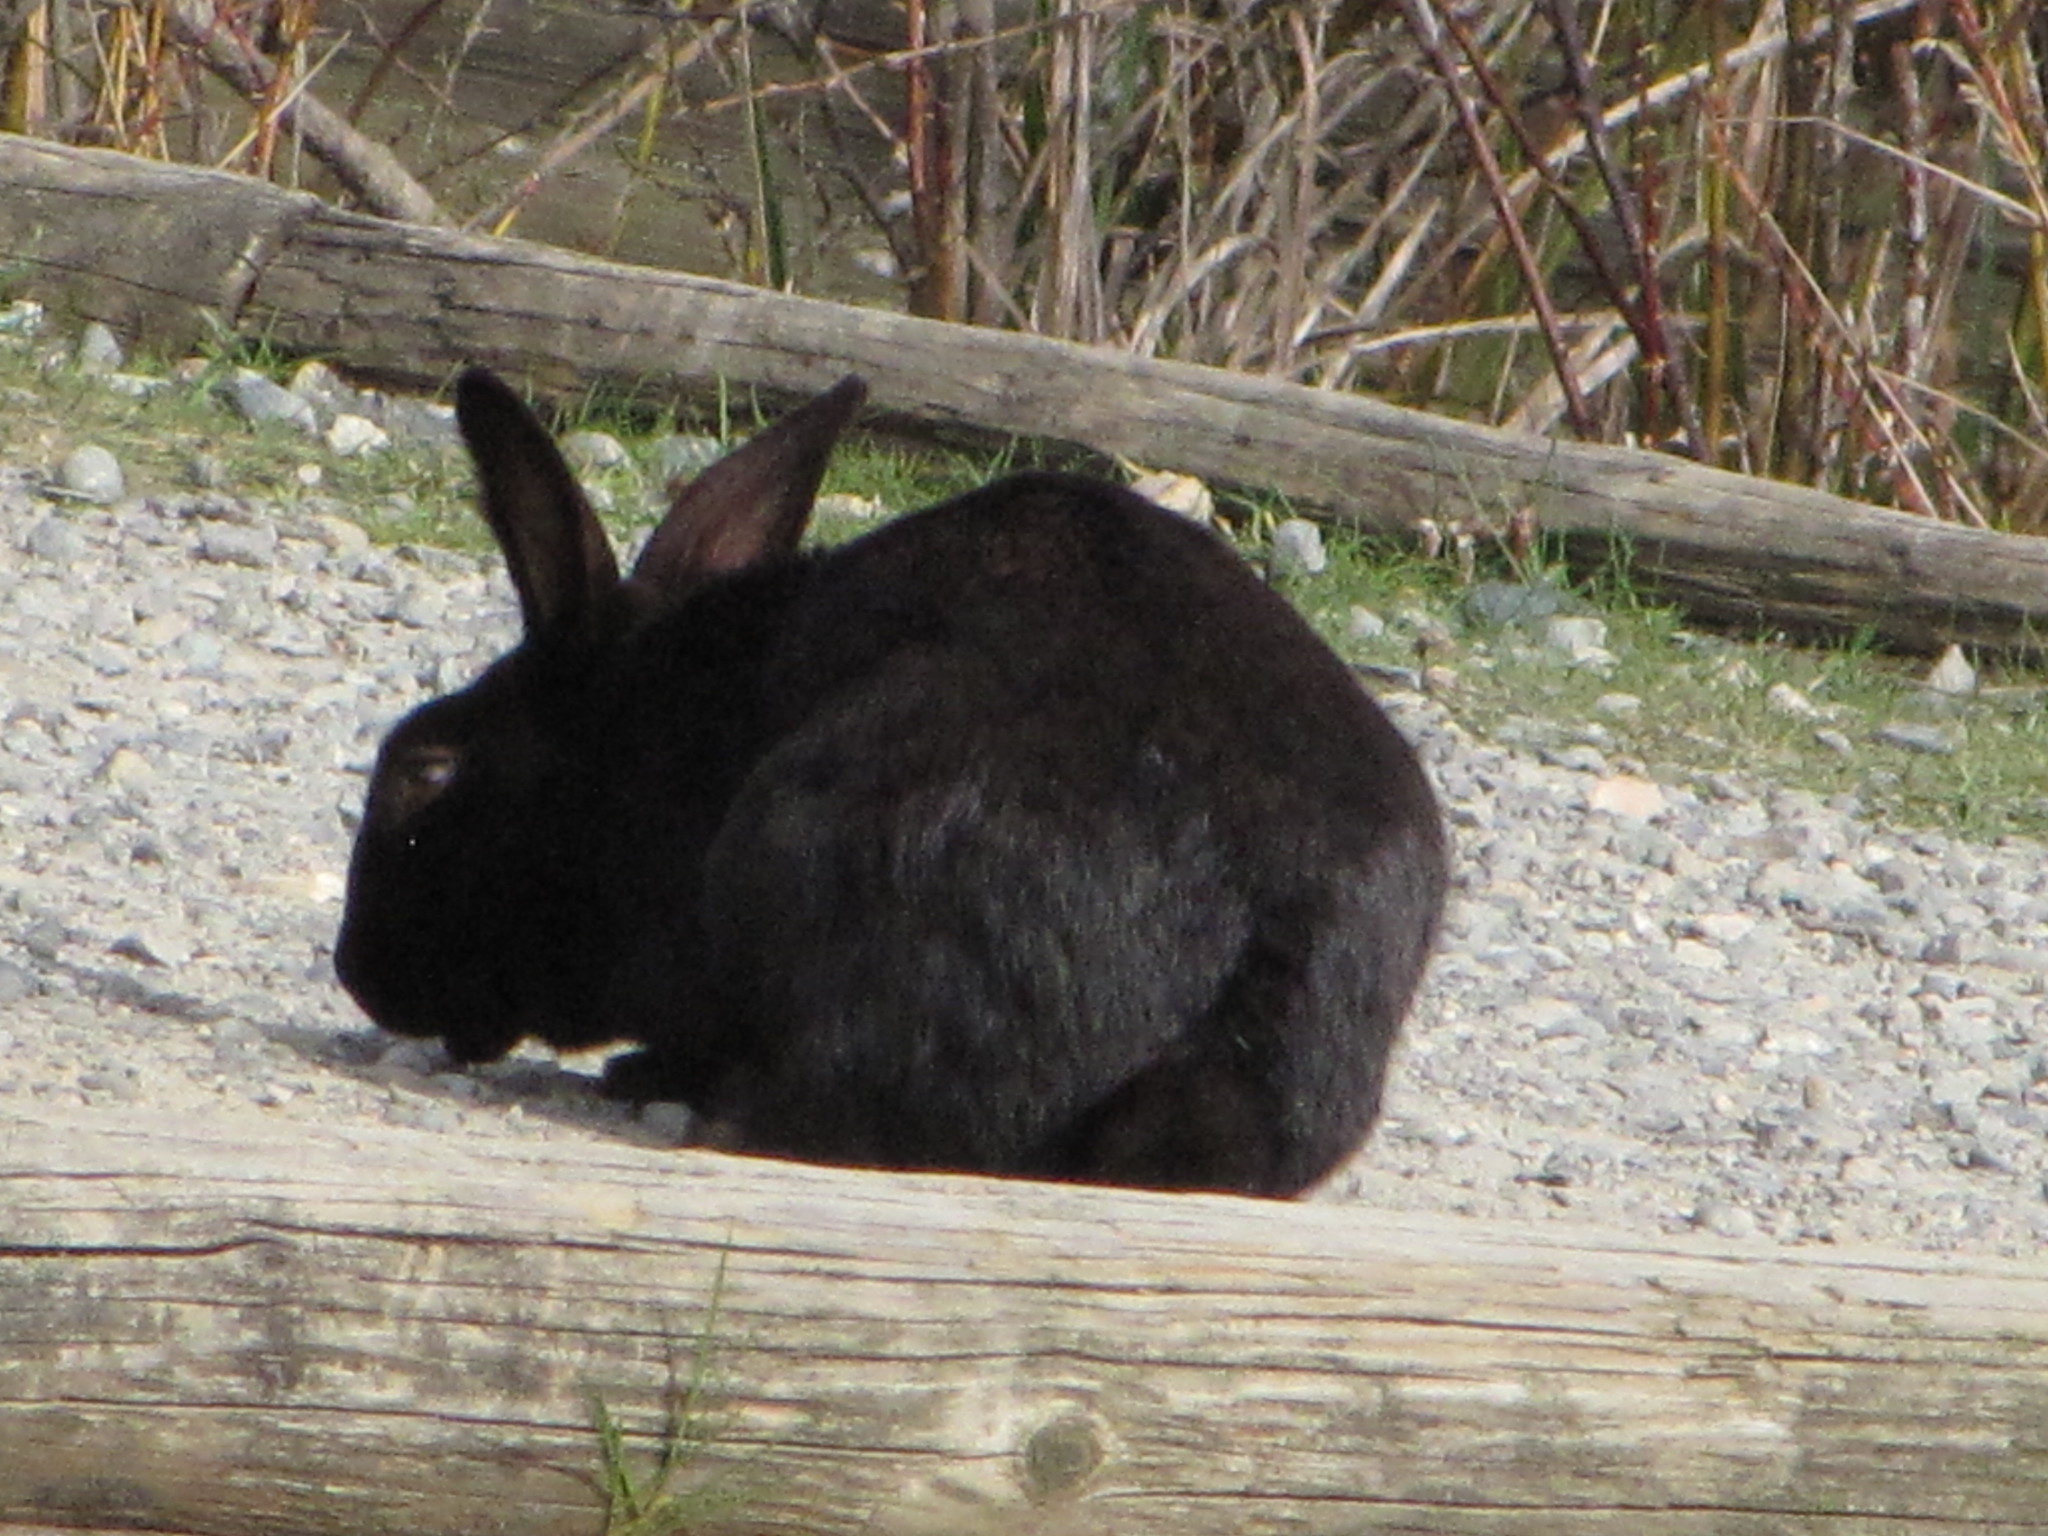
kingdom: Animalia
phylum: Chordata
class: Mammalia
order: Lagomorpha
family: Leporidae
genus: Oryctolagus
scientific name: Oryctolagus cuniculus
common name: European rabbit
